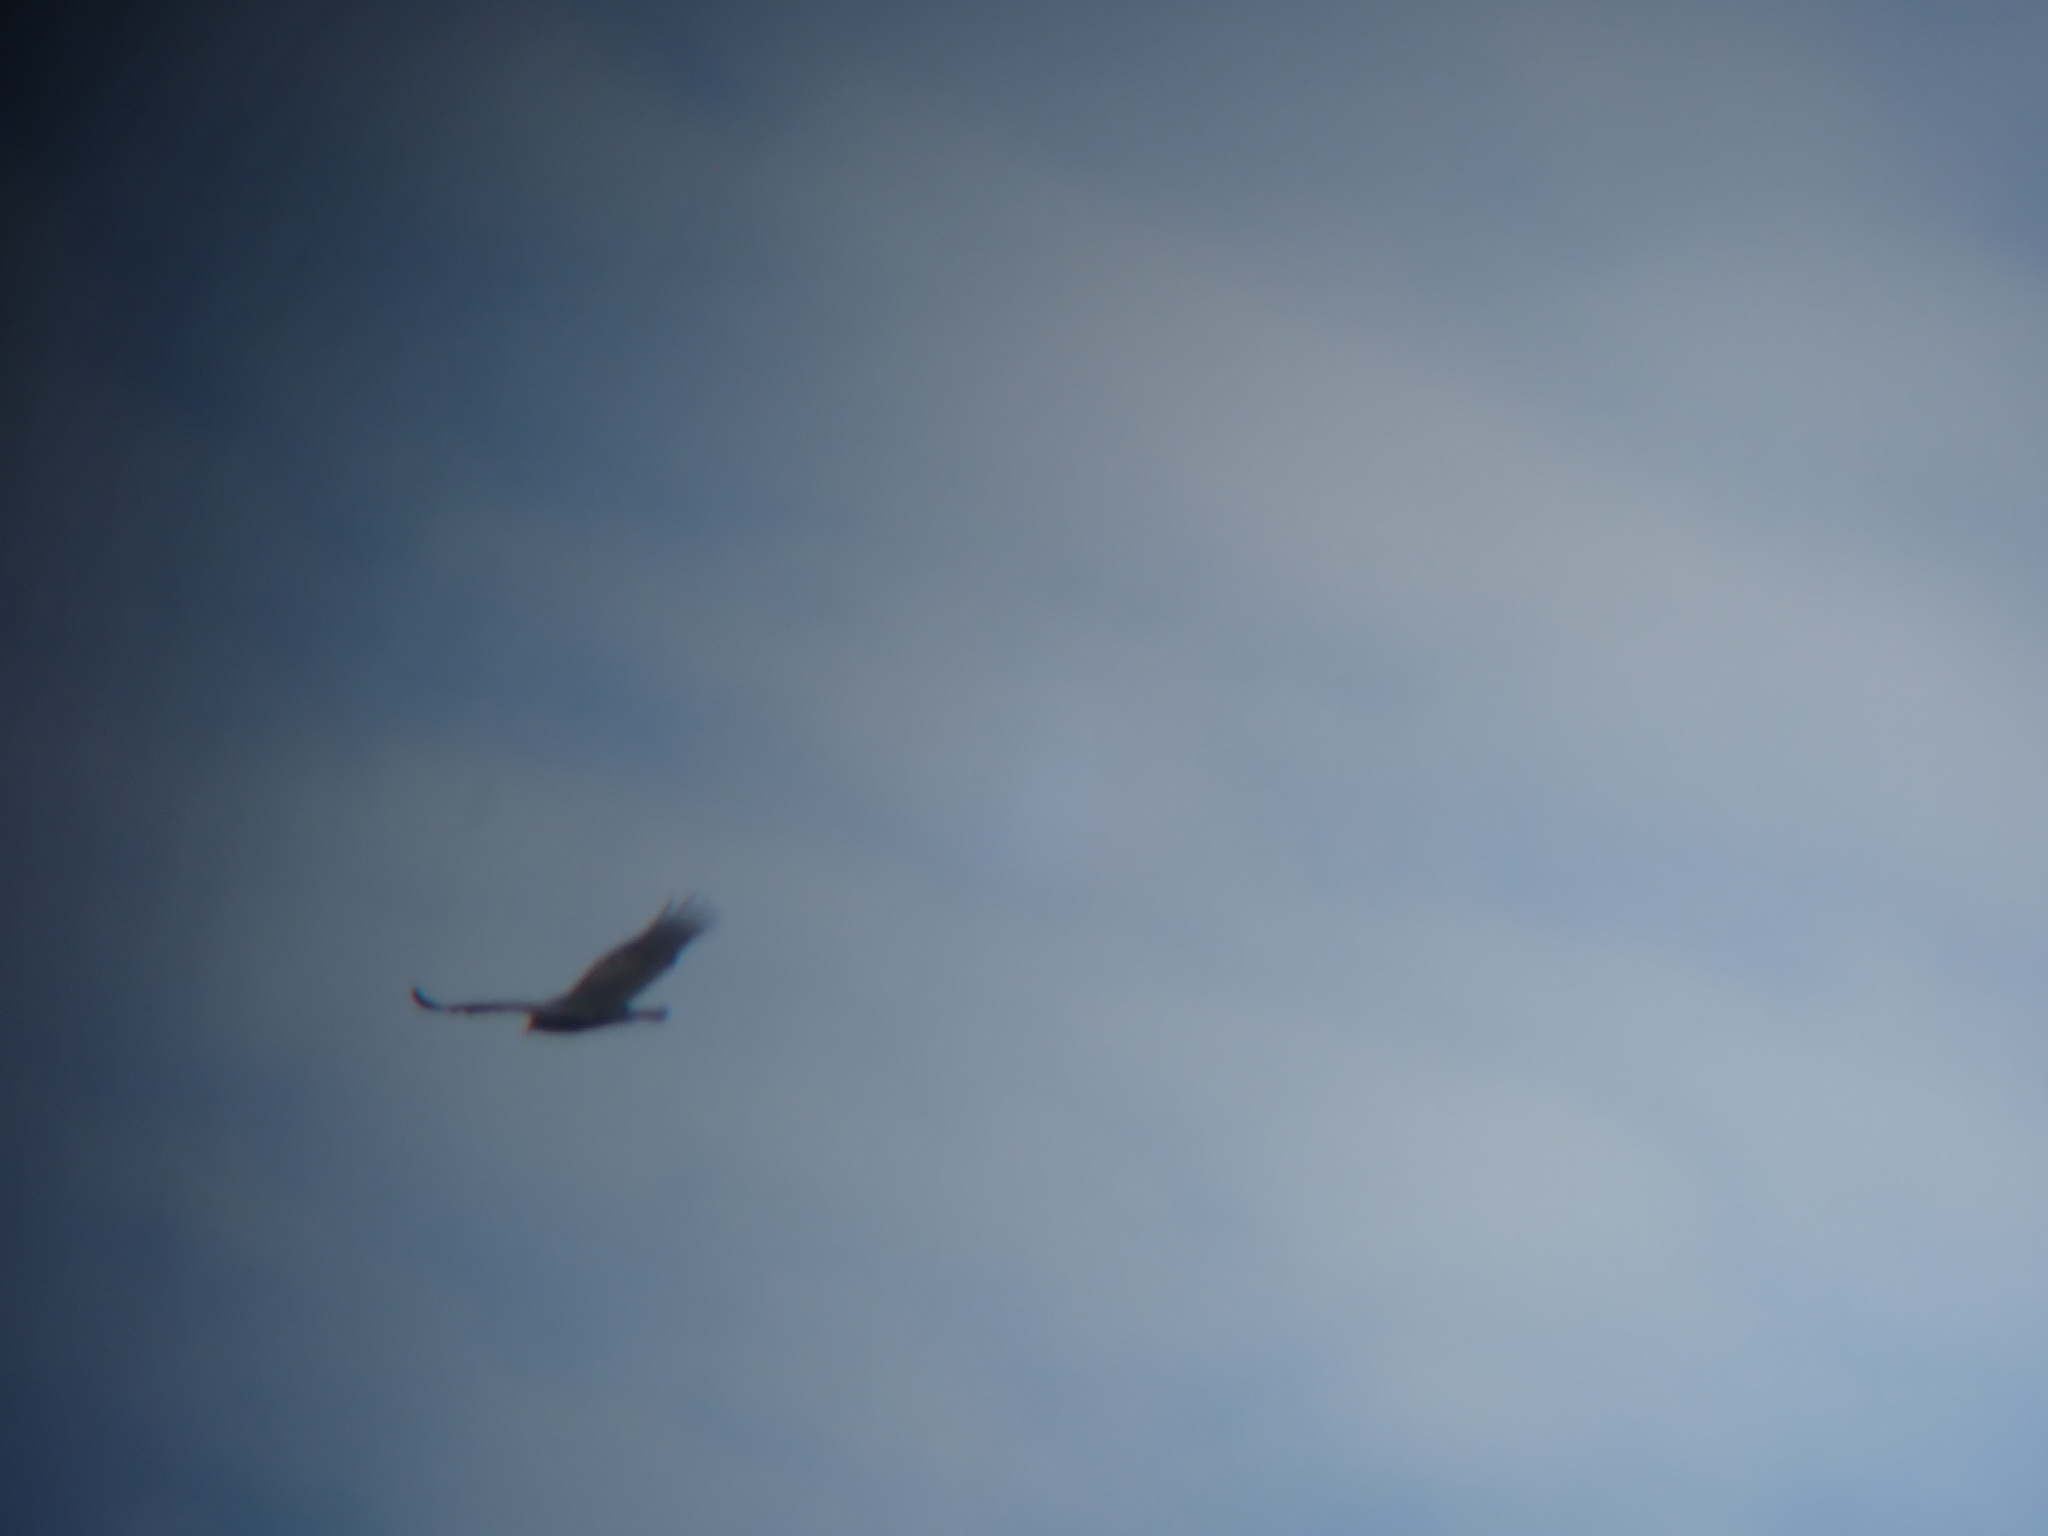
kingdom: Animalia
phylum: Chordata
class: Aves
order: Accipitriformes
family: Cathartidae
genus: Cathartes
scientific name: Cathartes aura
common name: Turkey vulture
